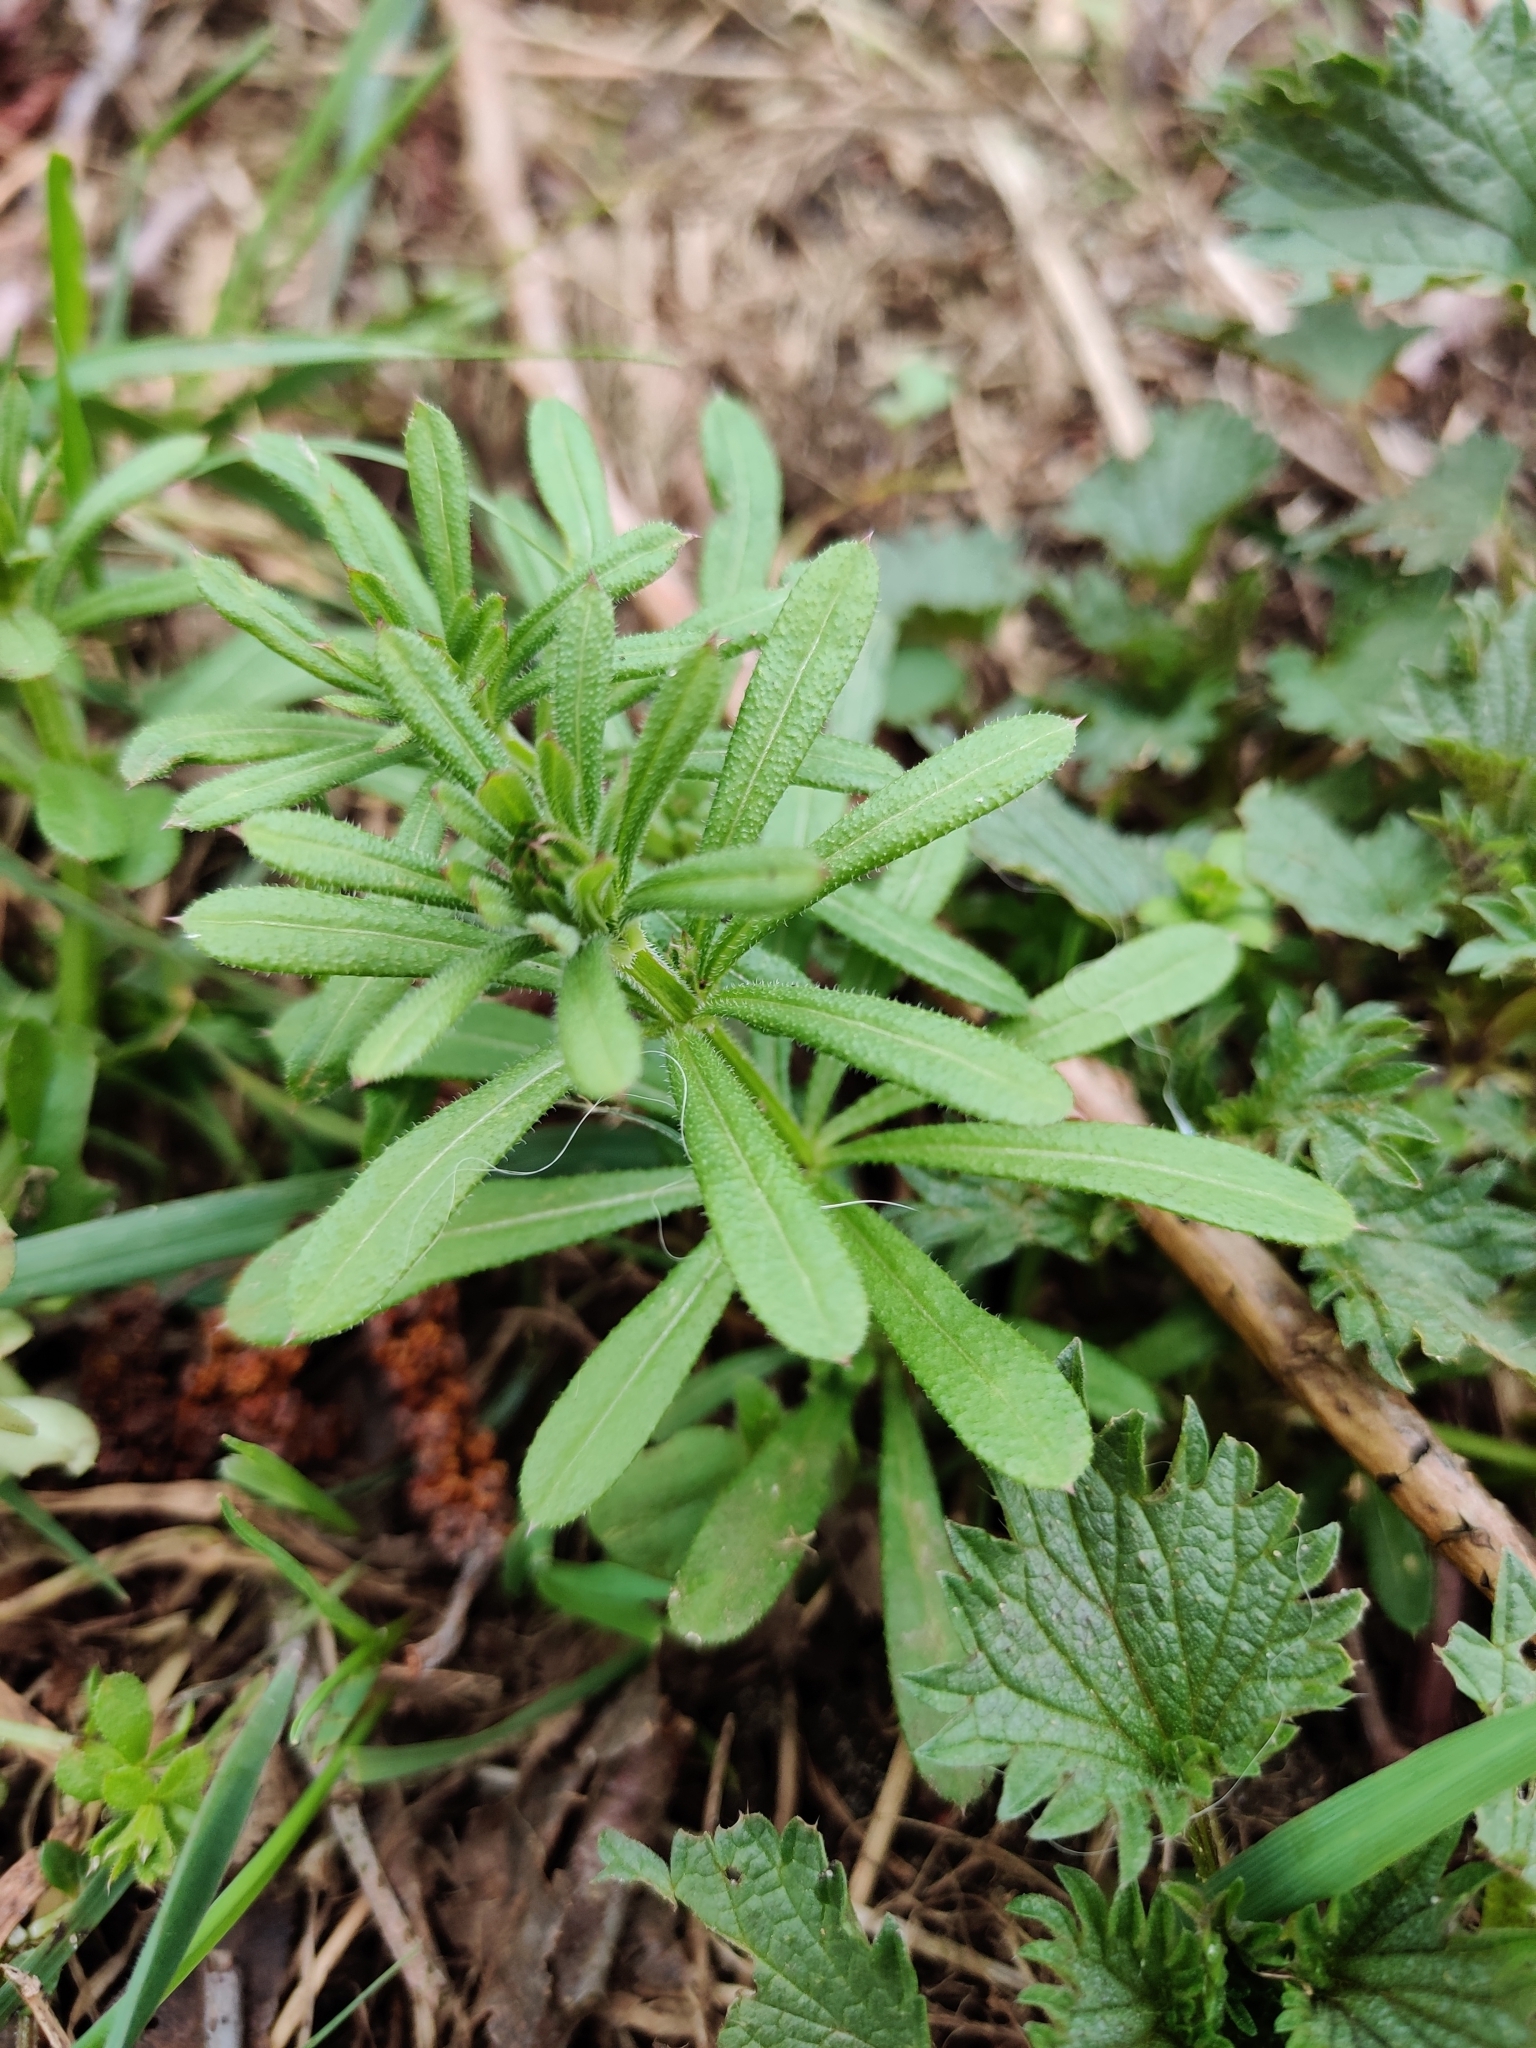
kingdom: Plantae
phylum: Tracheophyta
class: Magnoliopsida
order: Gentianales
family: Rubiaceae
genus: Galium
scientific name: Galium aparine
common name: Cleavers
